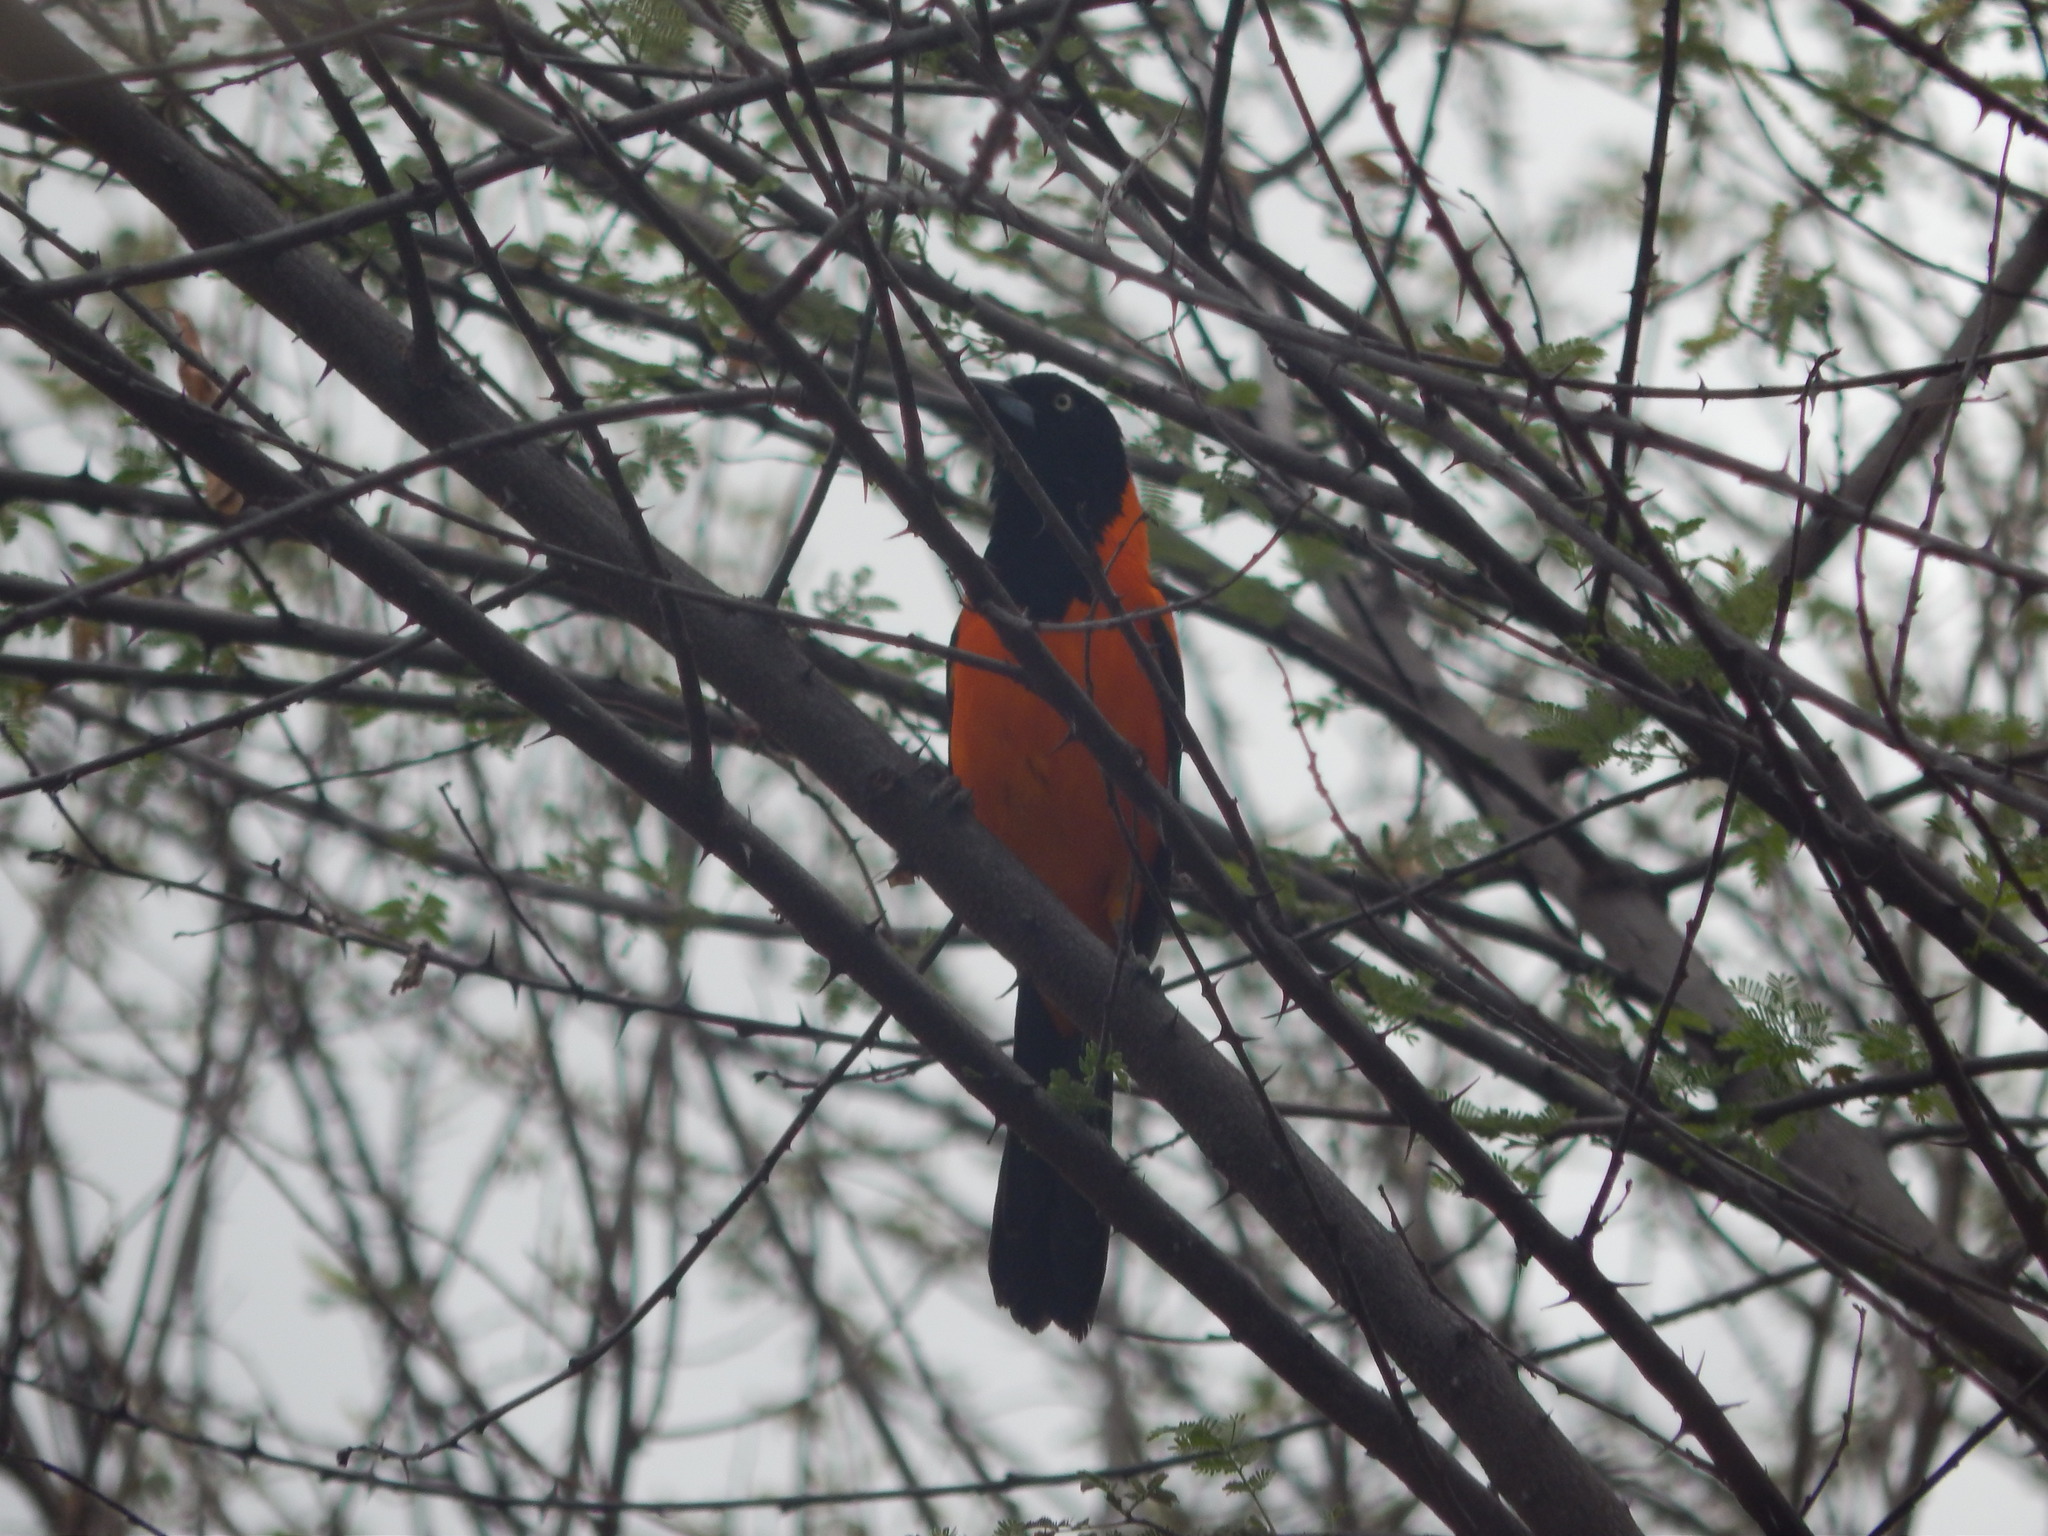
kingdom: Animalia
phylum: Chordata
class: Aves
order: Passeriformes
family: Icteridae
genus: Icterus
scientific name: Icterus icterus
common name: Venezuelan troupial
